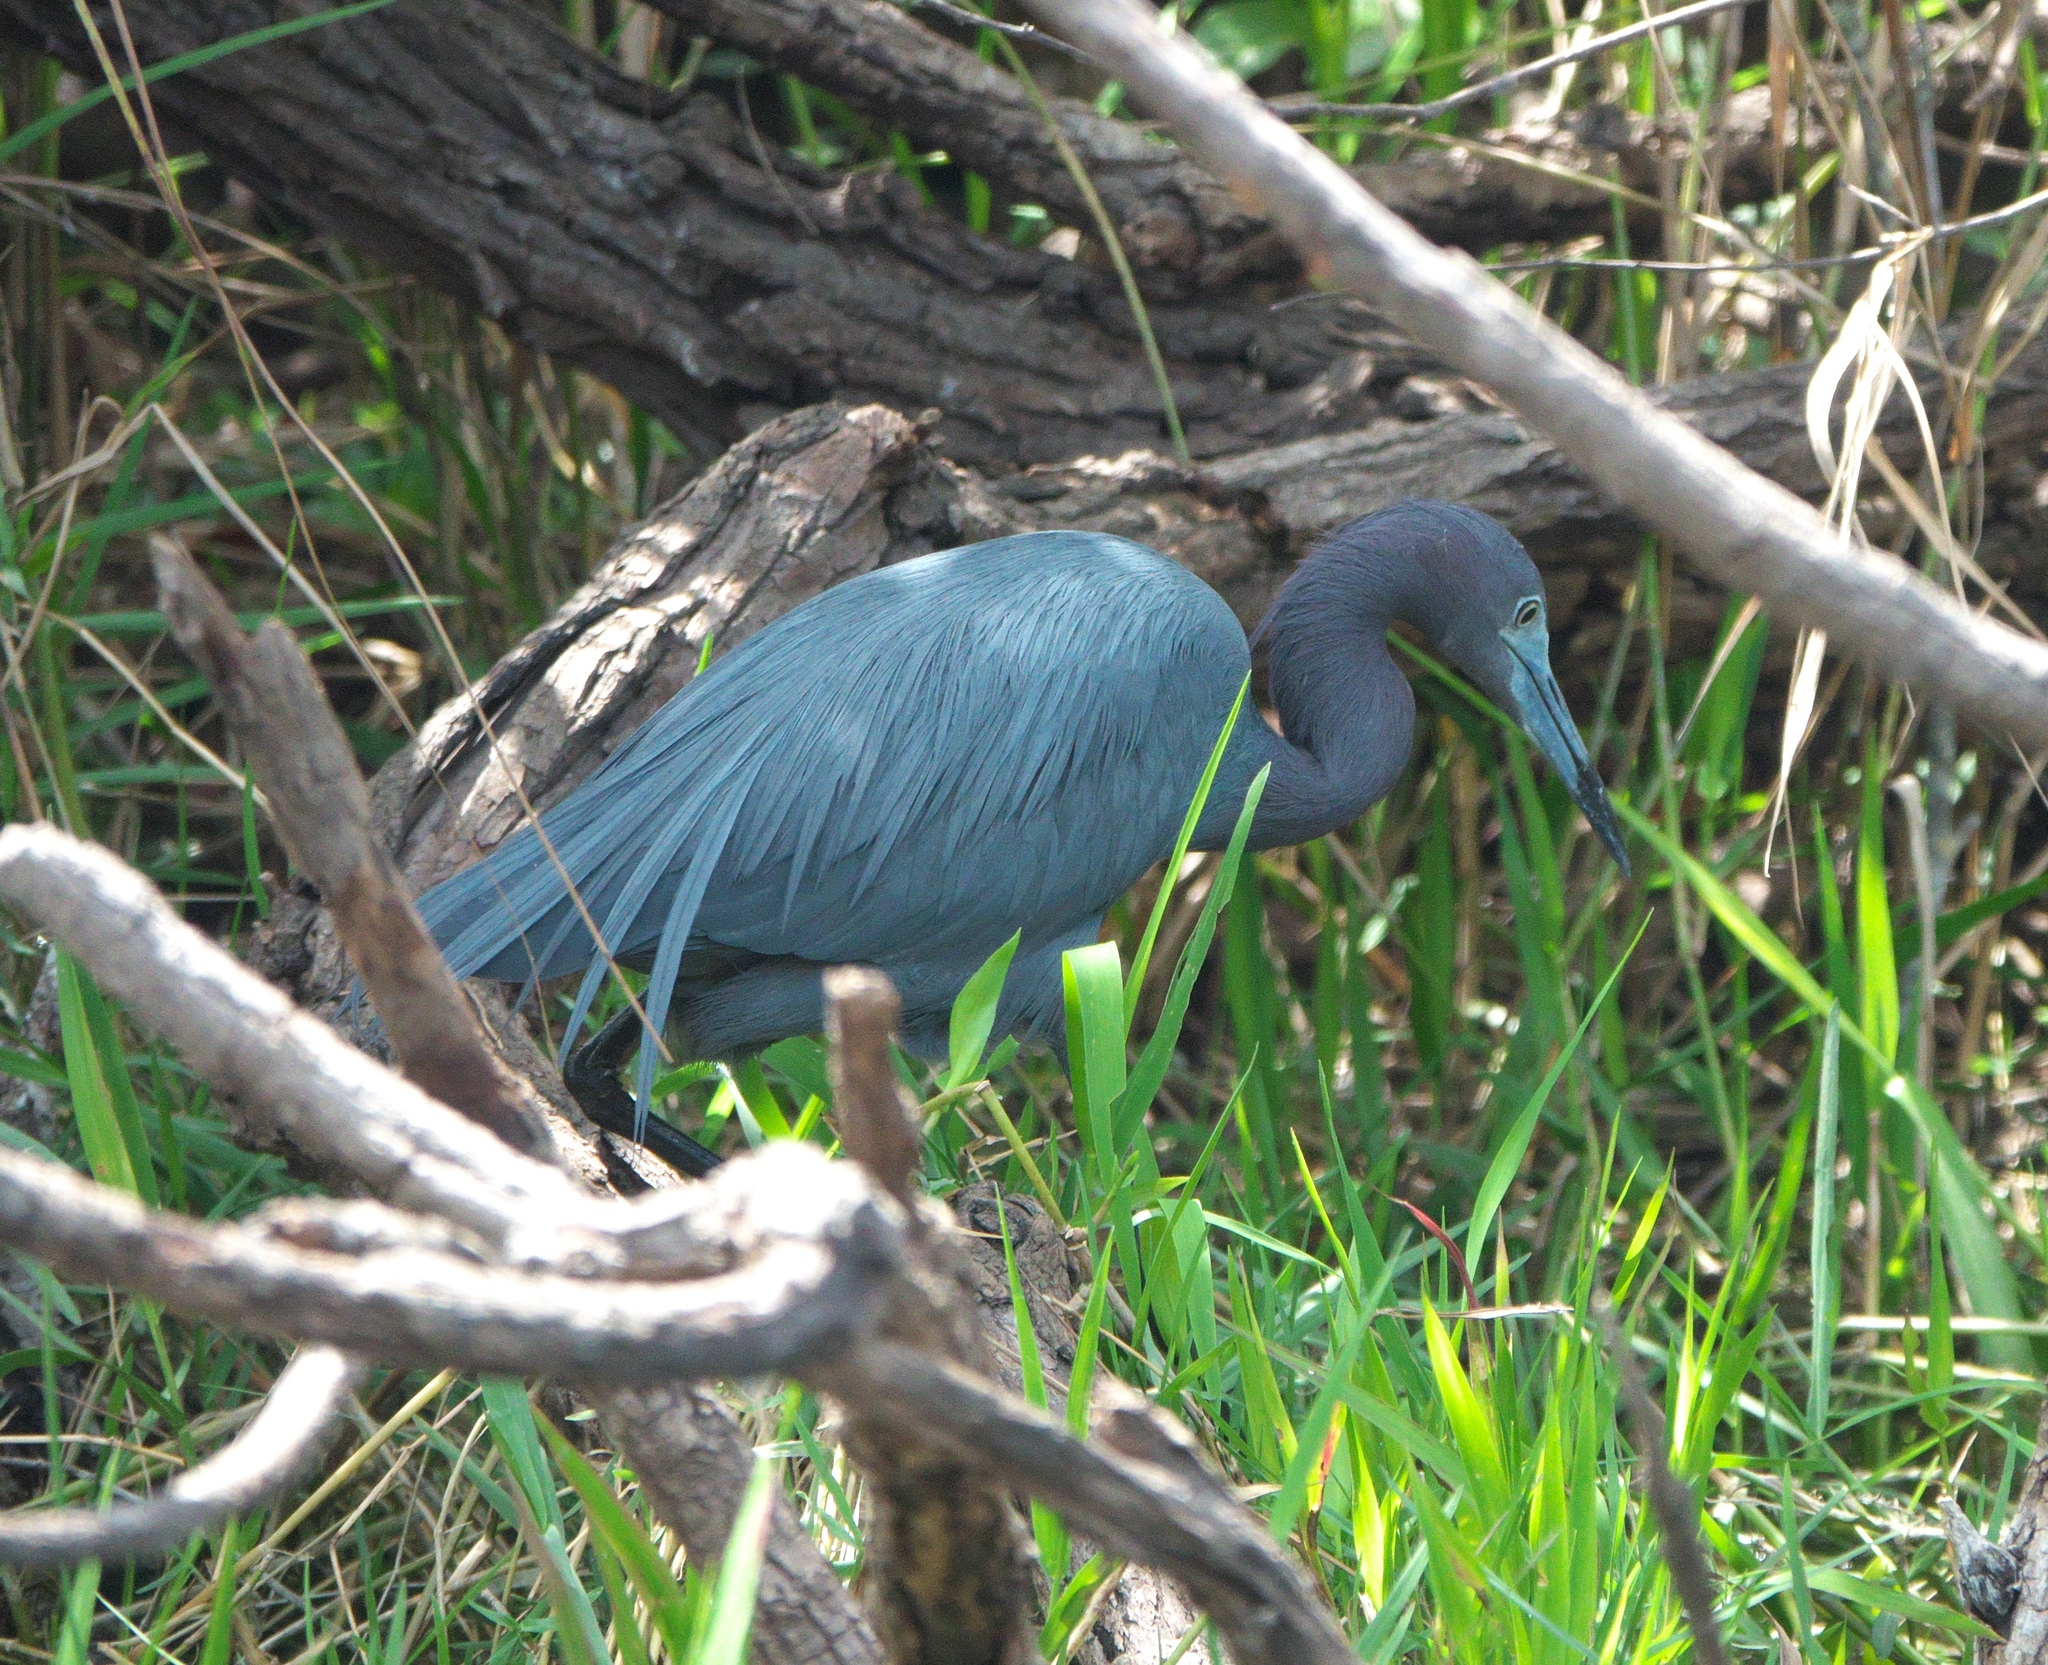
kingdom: Animalia
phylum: Chordata
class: Aves
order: Pelecaniformes
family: Ardeidae
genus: Egretta
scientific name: Egretta caerulea
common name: Little blue heron
